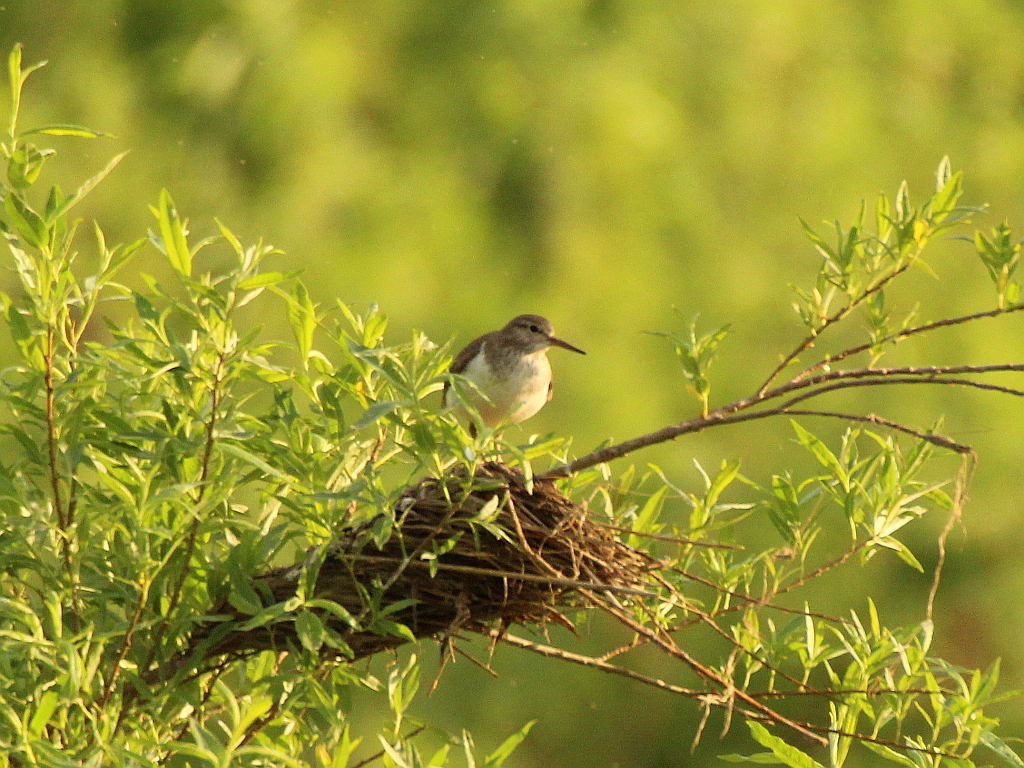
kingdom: Animalia
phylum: Chordata
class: Aves
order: Charadriiformes
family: Scolopacidae
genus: Actitis
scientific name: Actitis hypoleucos
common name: Common sandpiper
